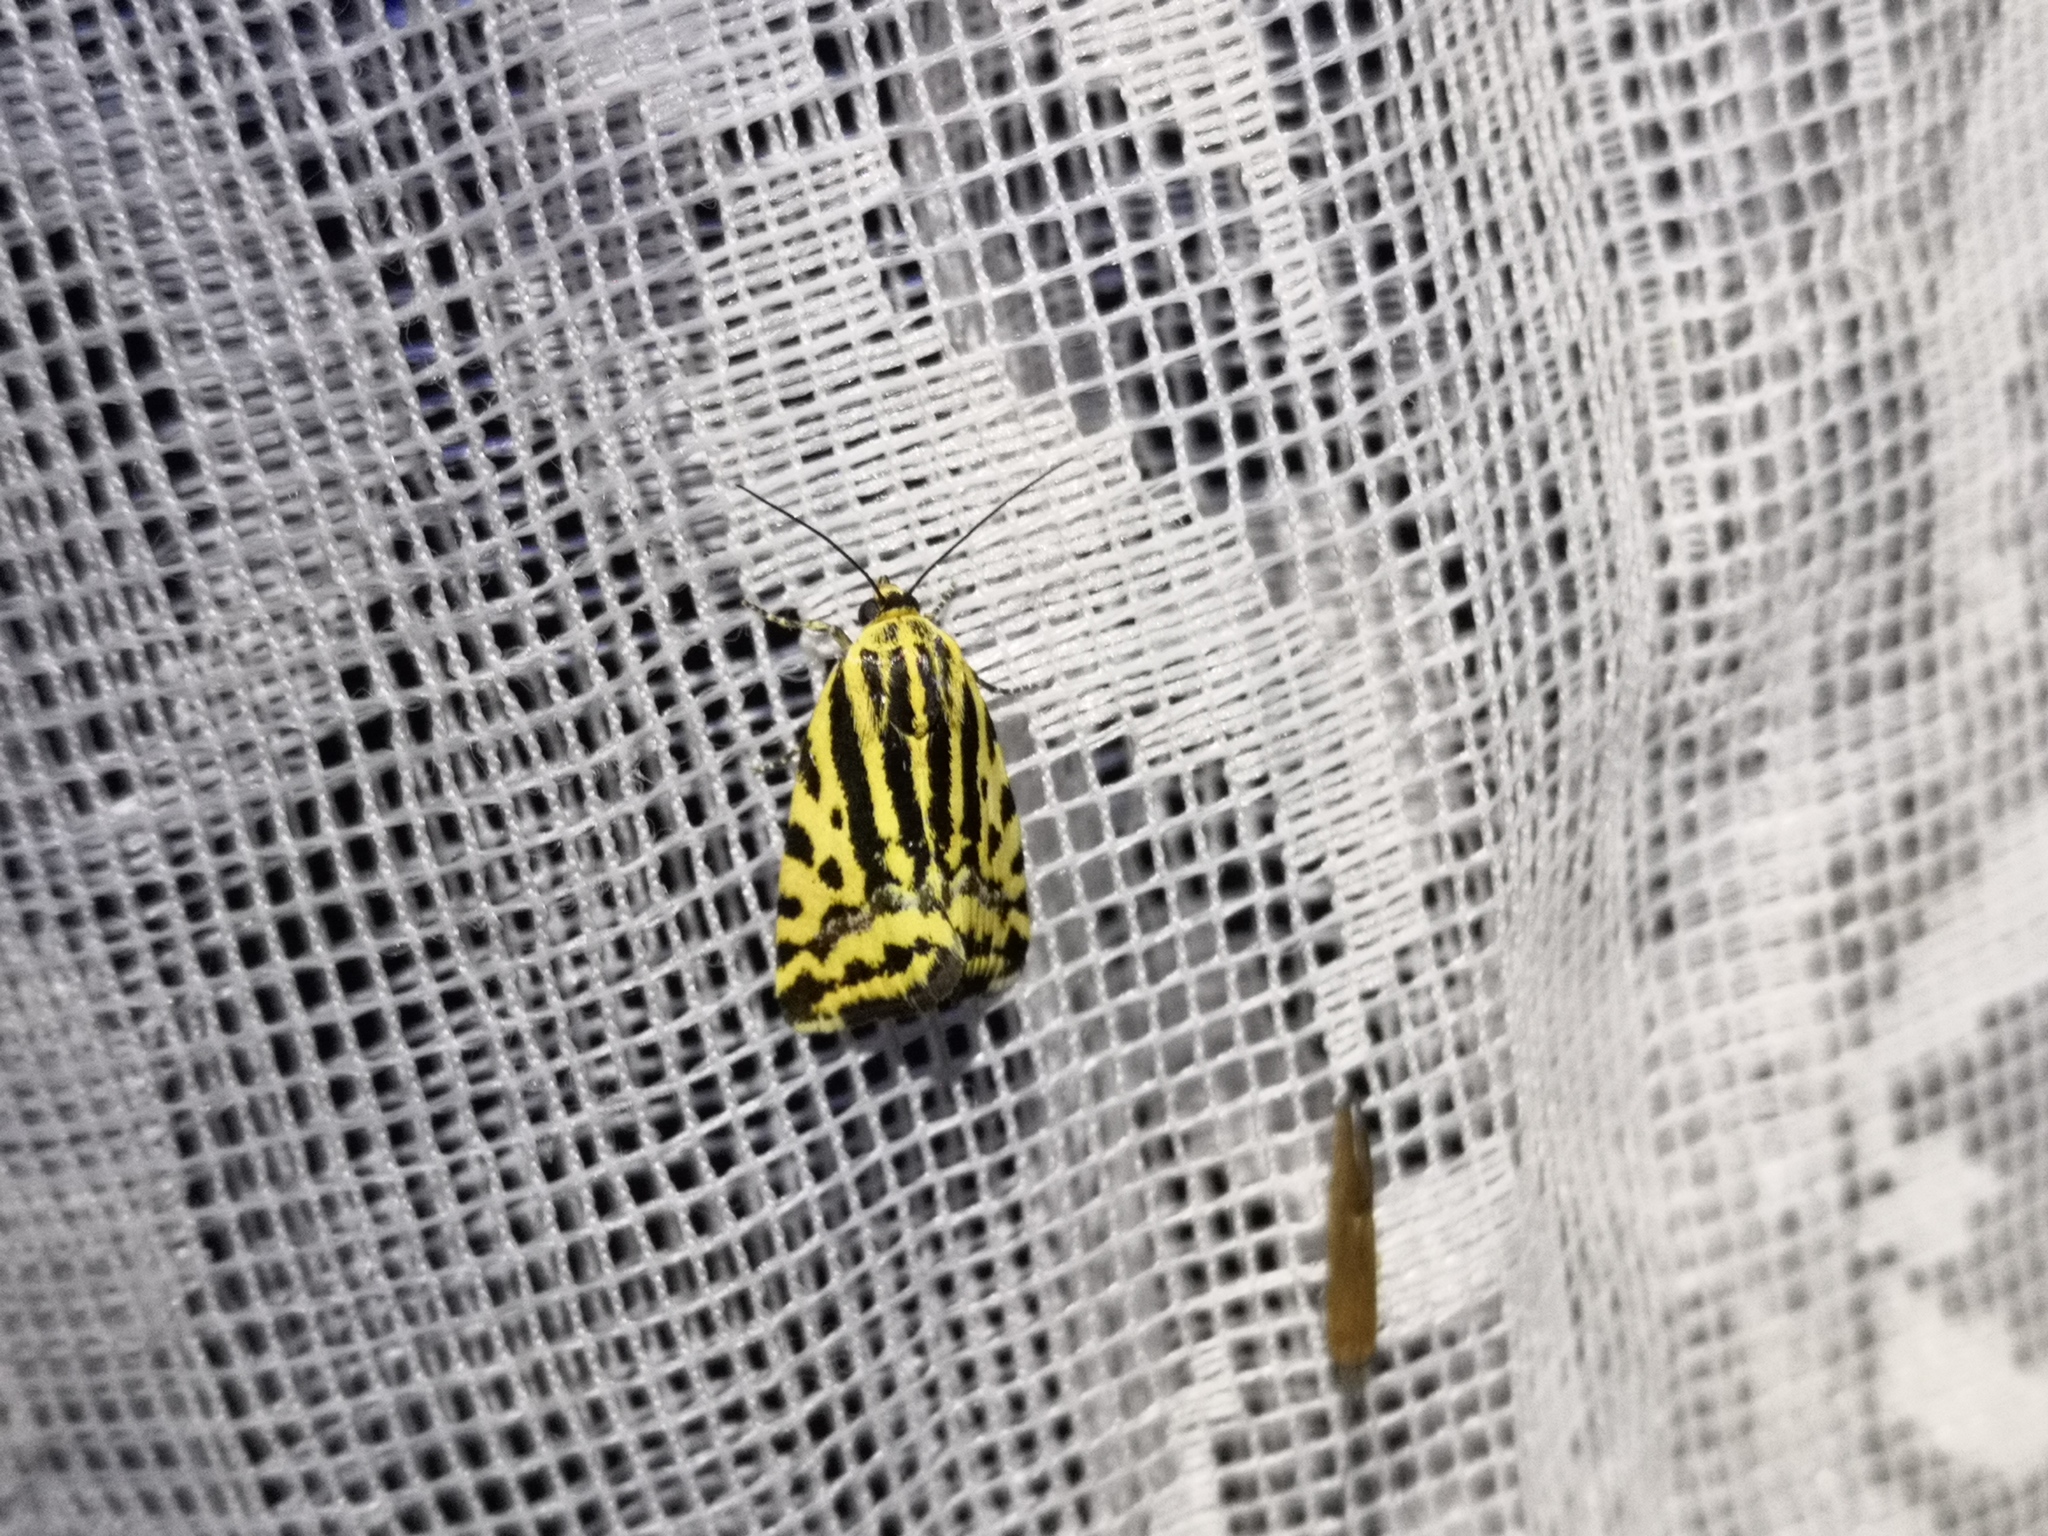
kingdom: Animalia
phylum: Arthropoda
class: Insecta
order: Lepidoptera
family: Noctuidae
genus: Acontia
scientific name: Acontia trabealis
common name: Spotted sulphur
